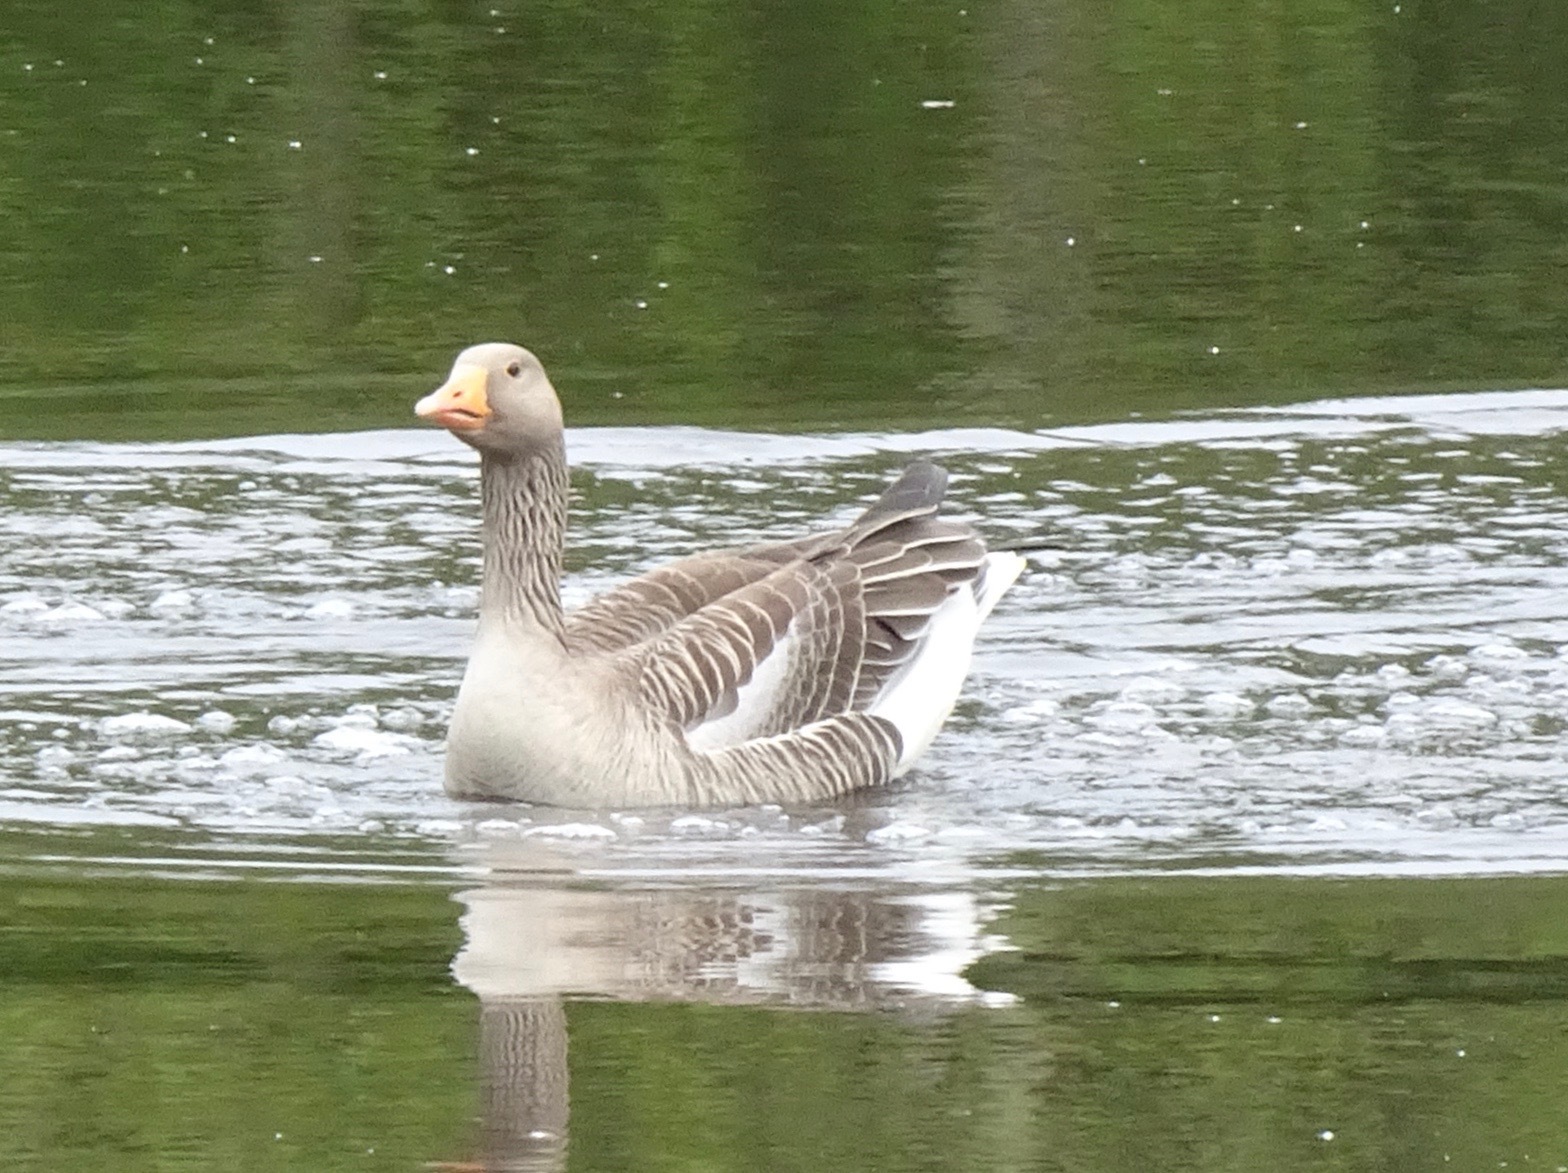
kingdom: Animalia
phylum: Chordata
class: Aves
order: Anseriformes
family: Anatidae
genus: Anser
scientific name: Anser anser
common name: Greylag goose
